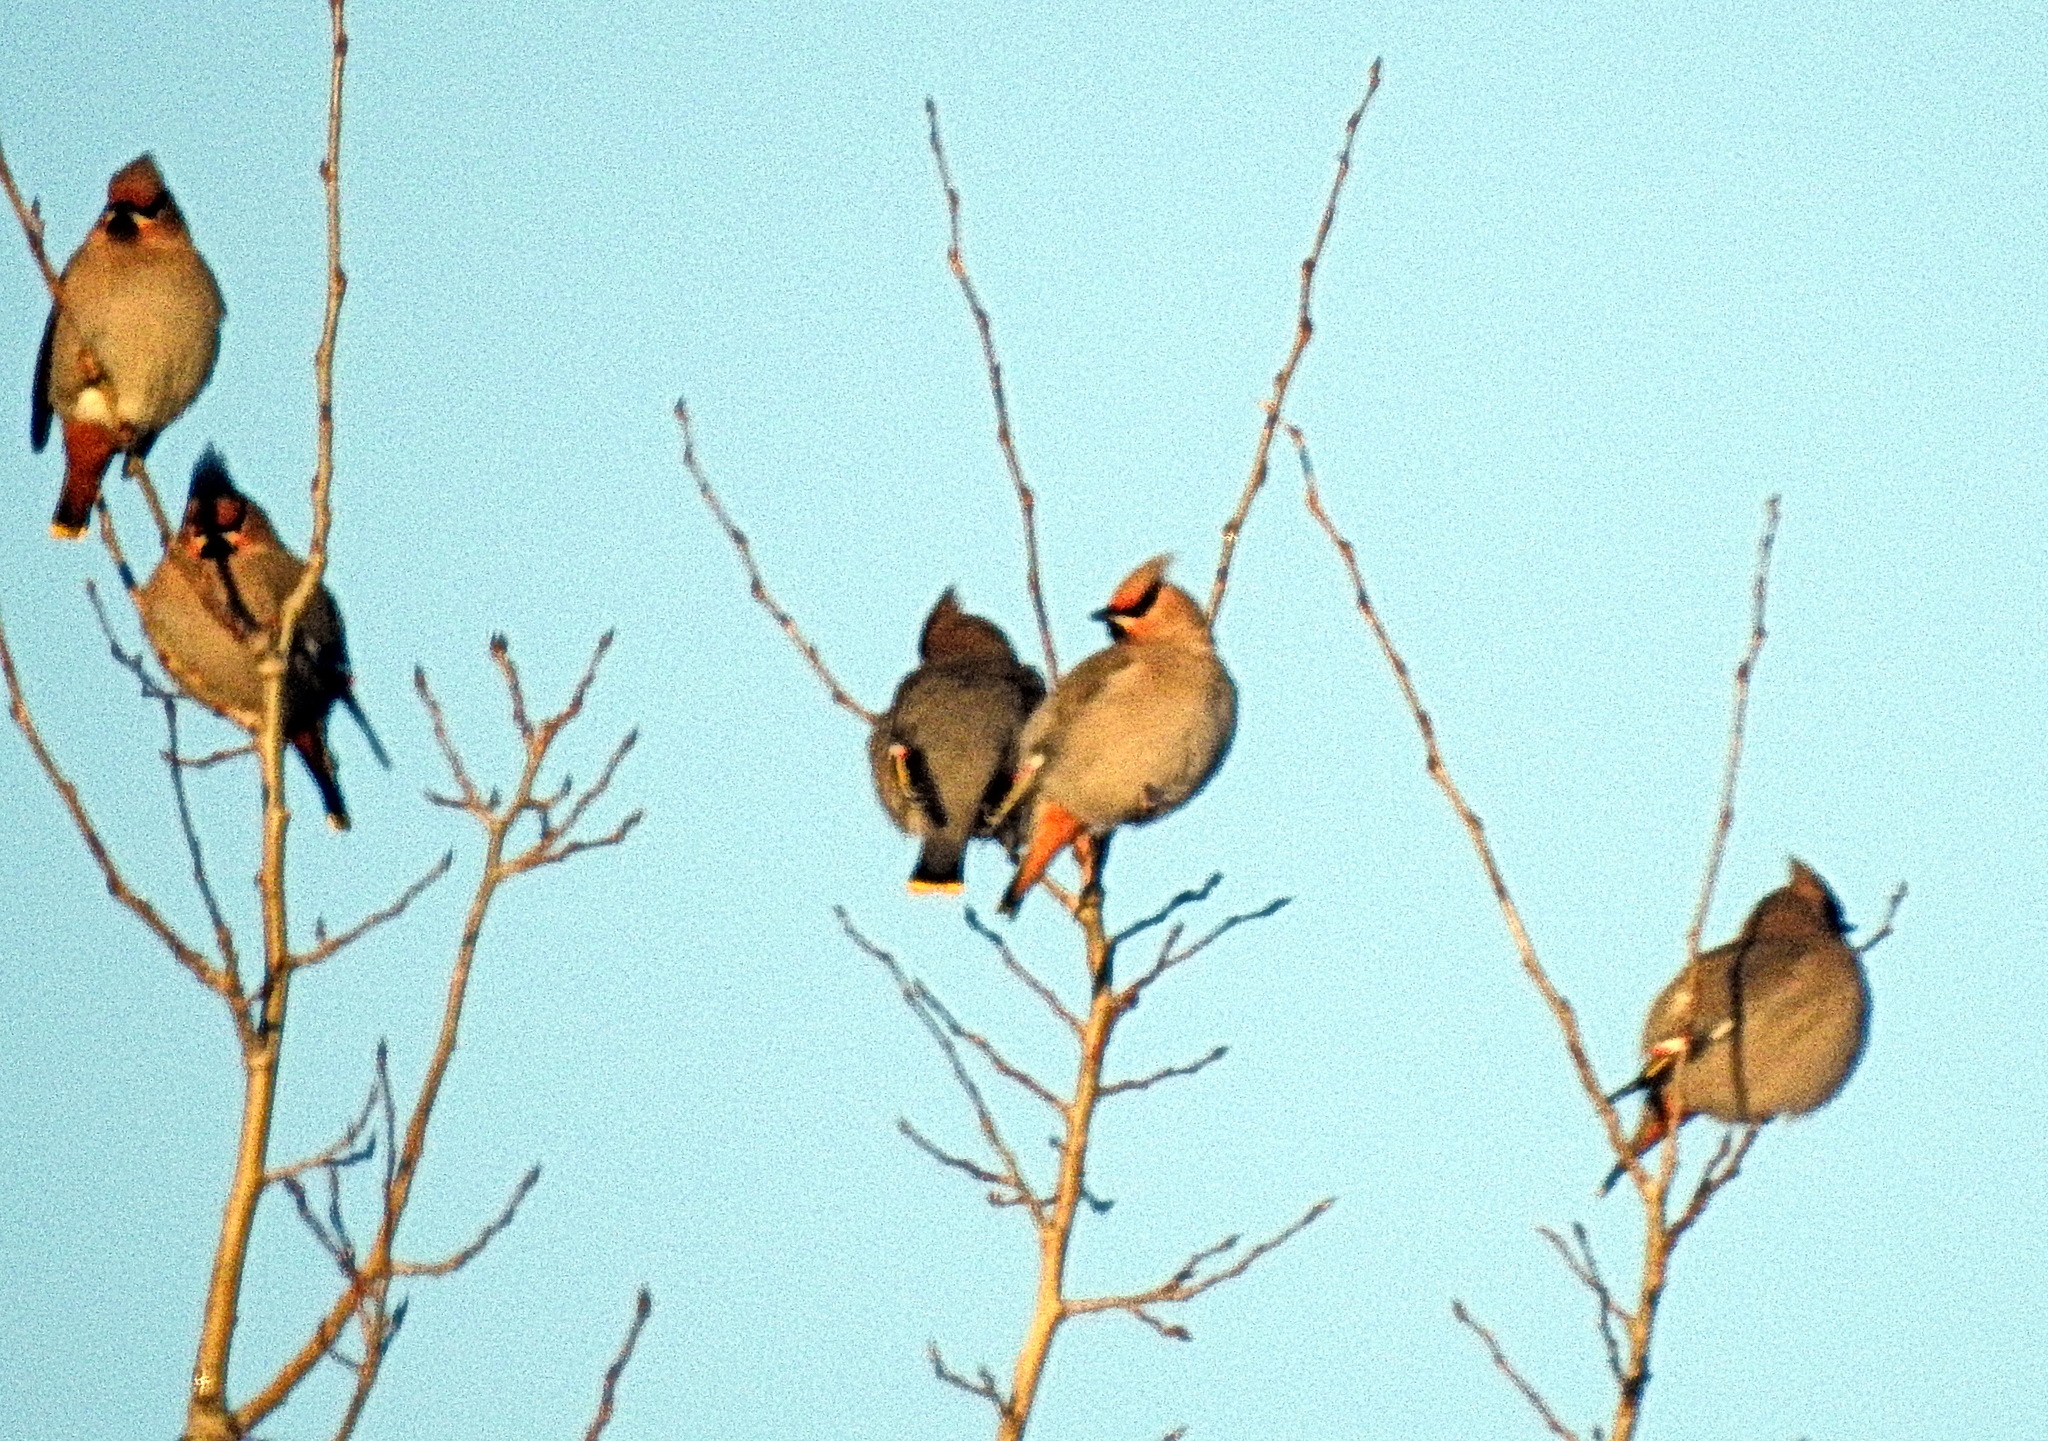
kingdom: Animalia
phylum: Chordata
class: Aves
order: Passeriformes
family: Bombycillidae
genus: Bombycilla
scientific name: Bombycilla garrulus
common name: Bohemian waxwing
